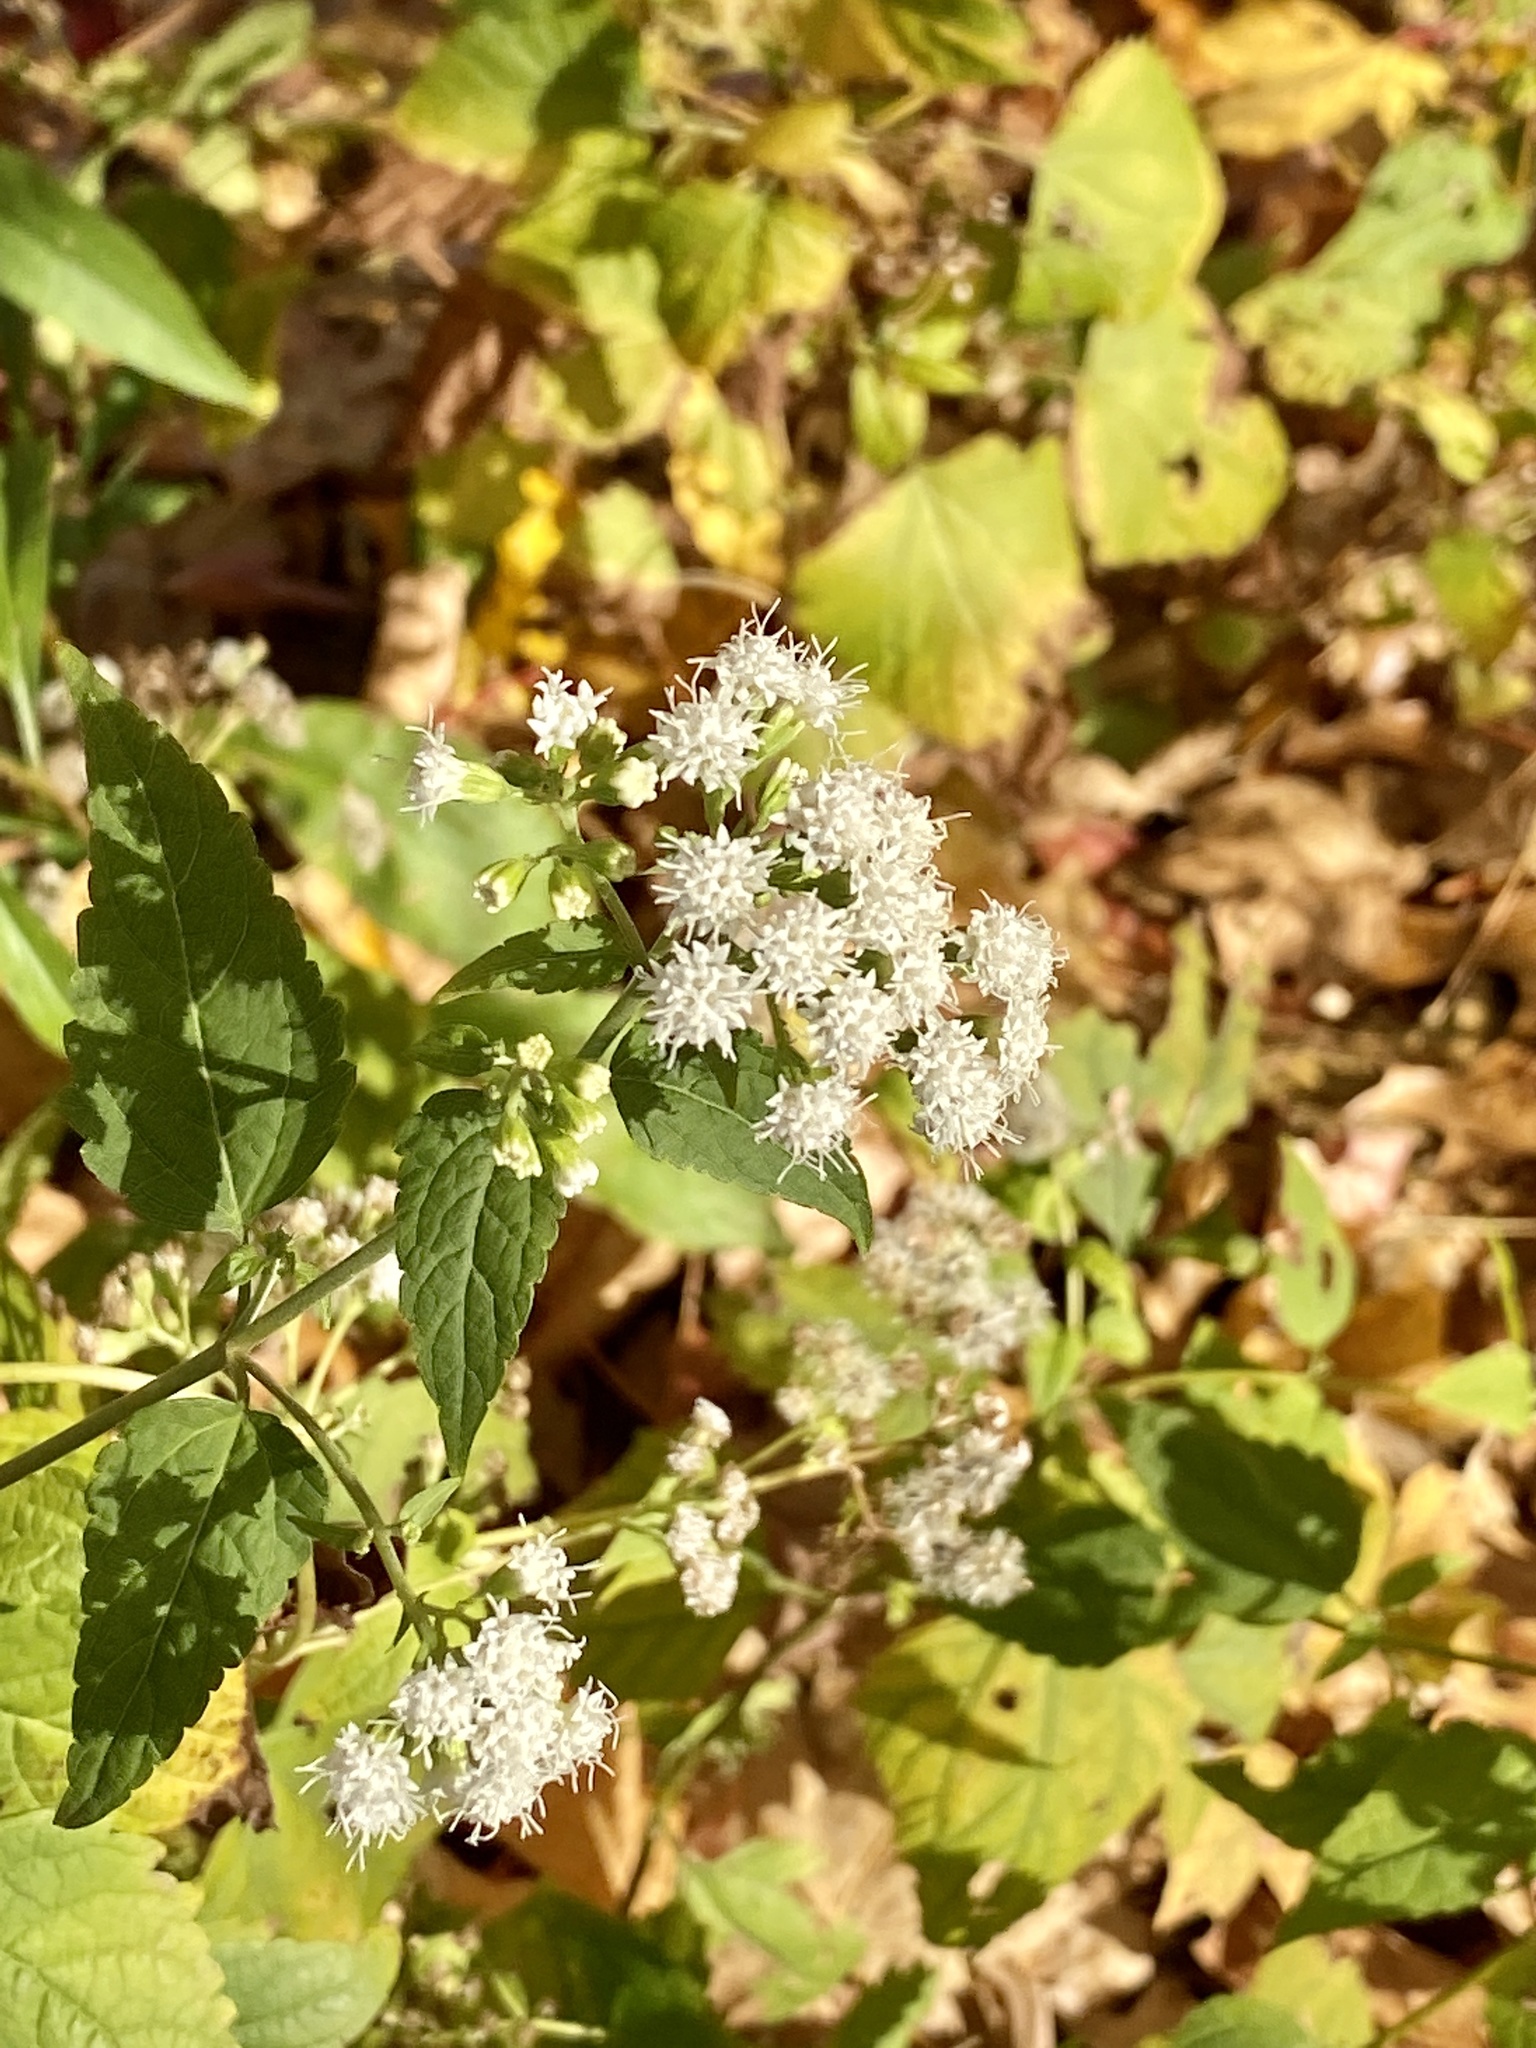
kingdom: Plantae
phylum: Tracheophyta
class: Magnoliopsida
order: Asterales
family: Asteraceae
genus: Ageratina
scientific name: Ageratina altissima
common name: White snakeroot
